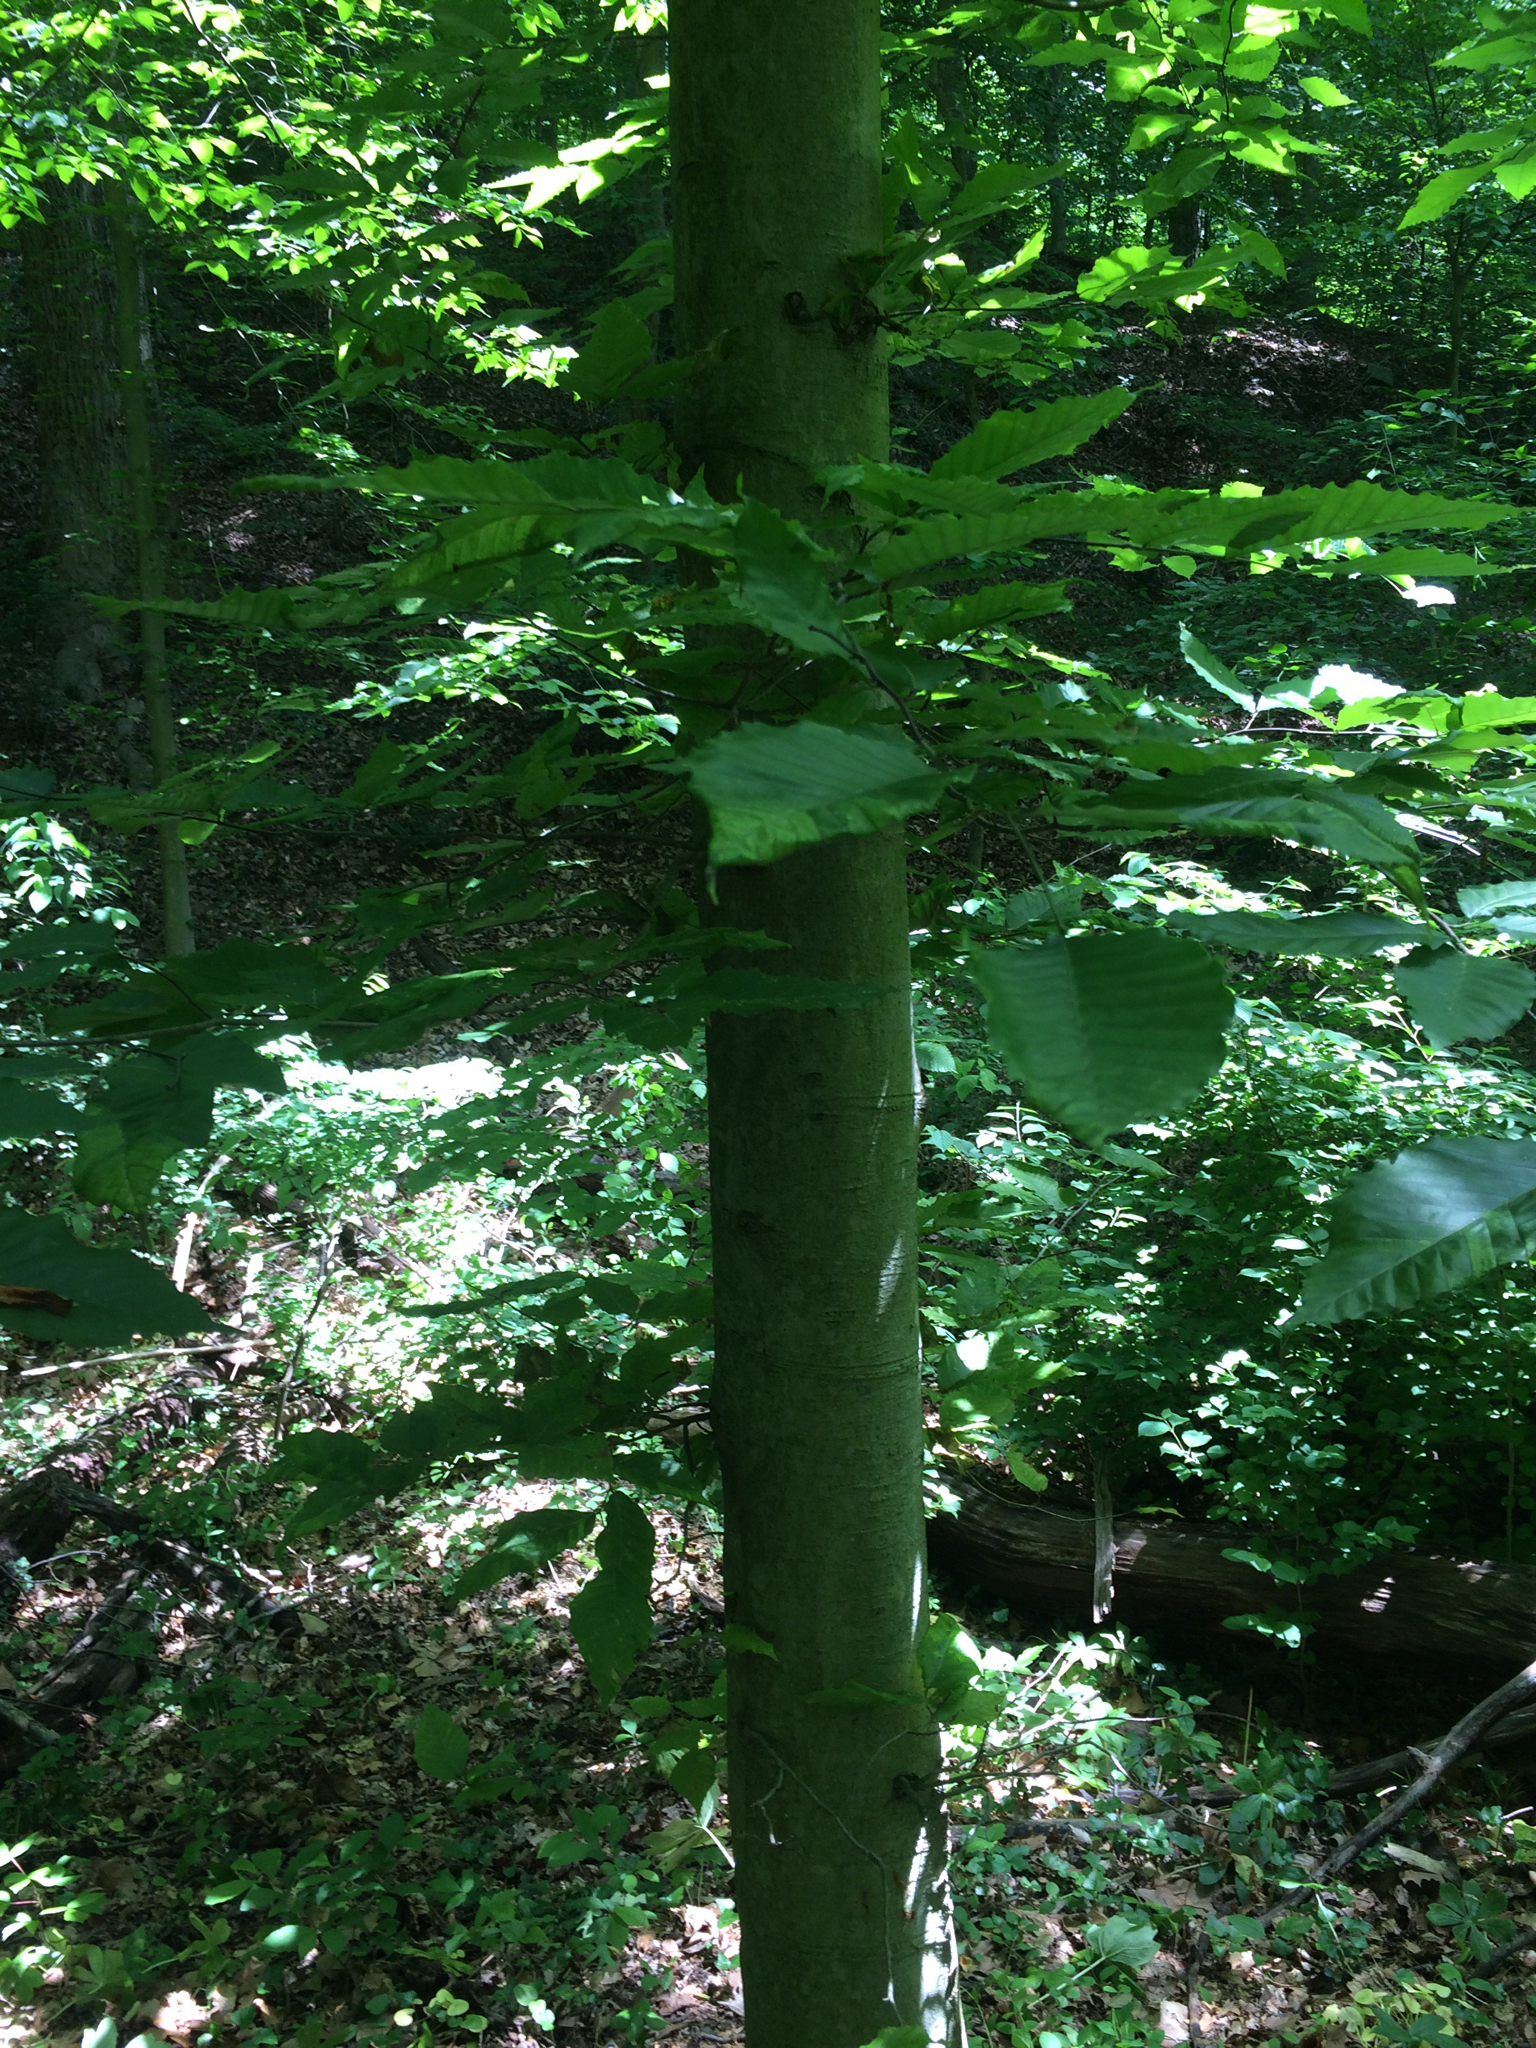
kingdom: Plantae
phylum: Tracheophyta
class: Magnoliopsida
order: Fagales
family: Fagaceae
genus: Fagus
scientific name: Fagus grandifolia
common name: American beech
